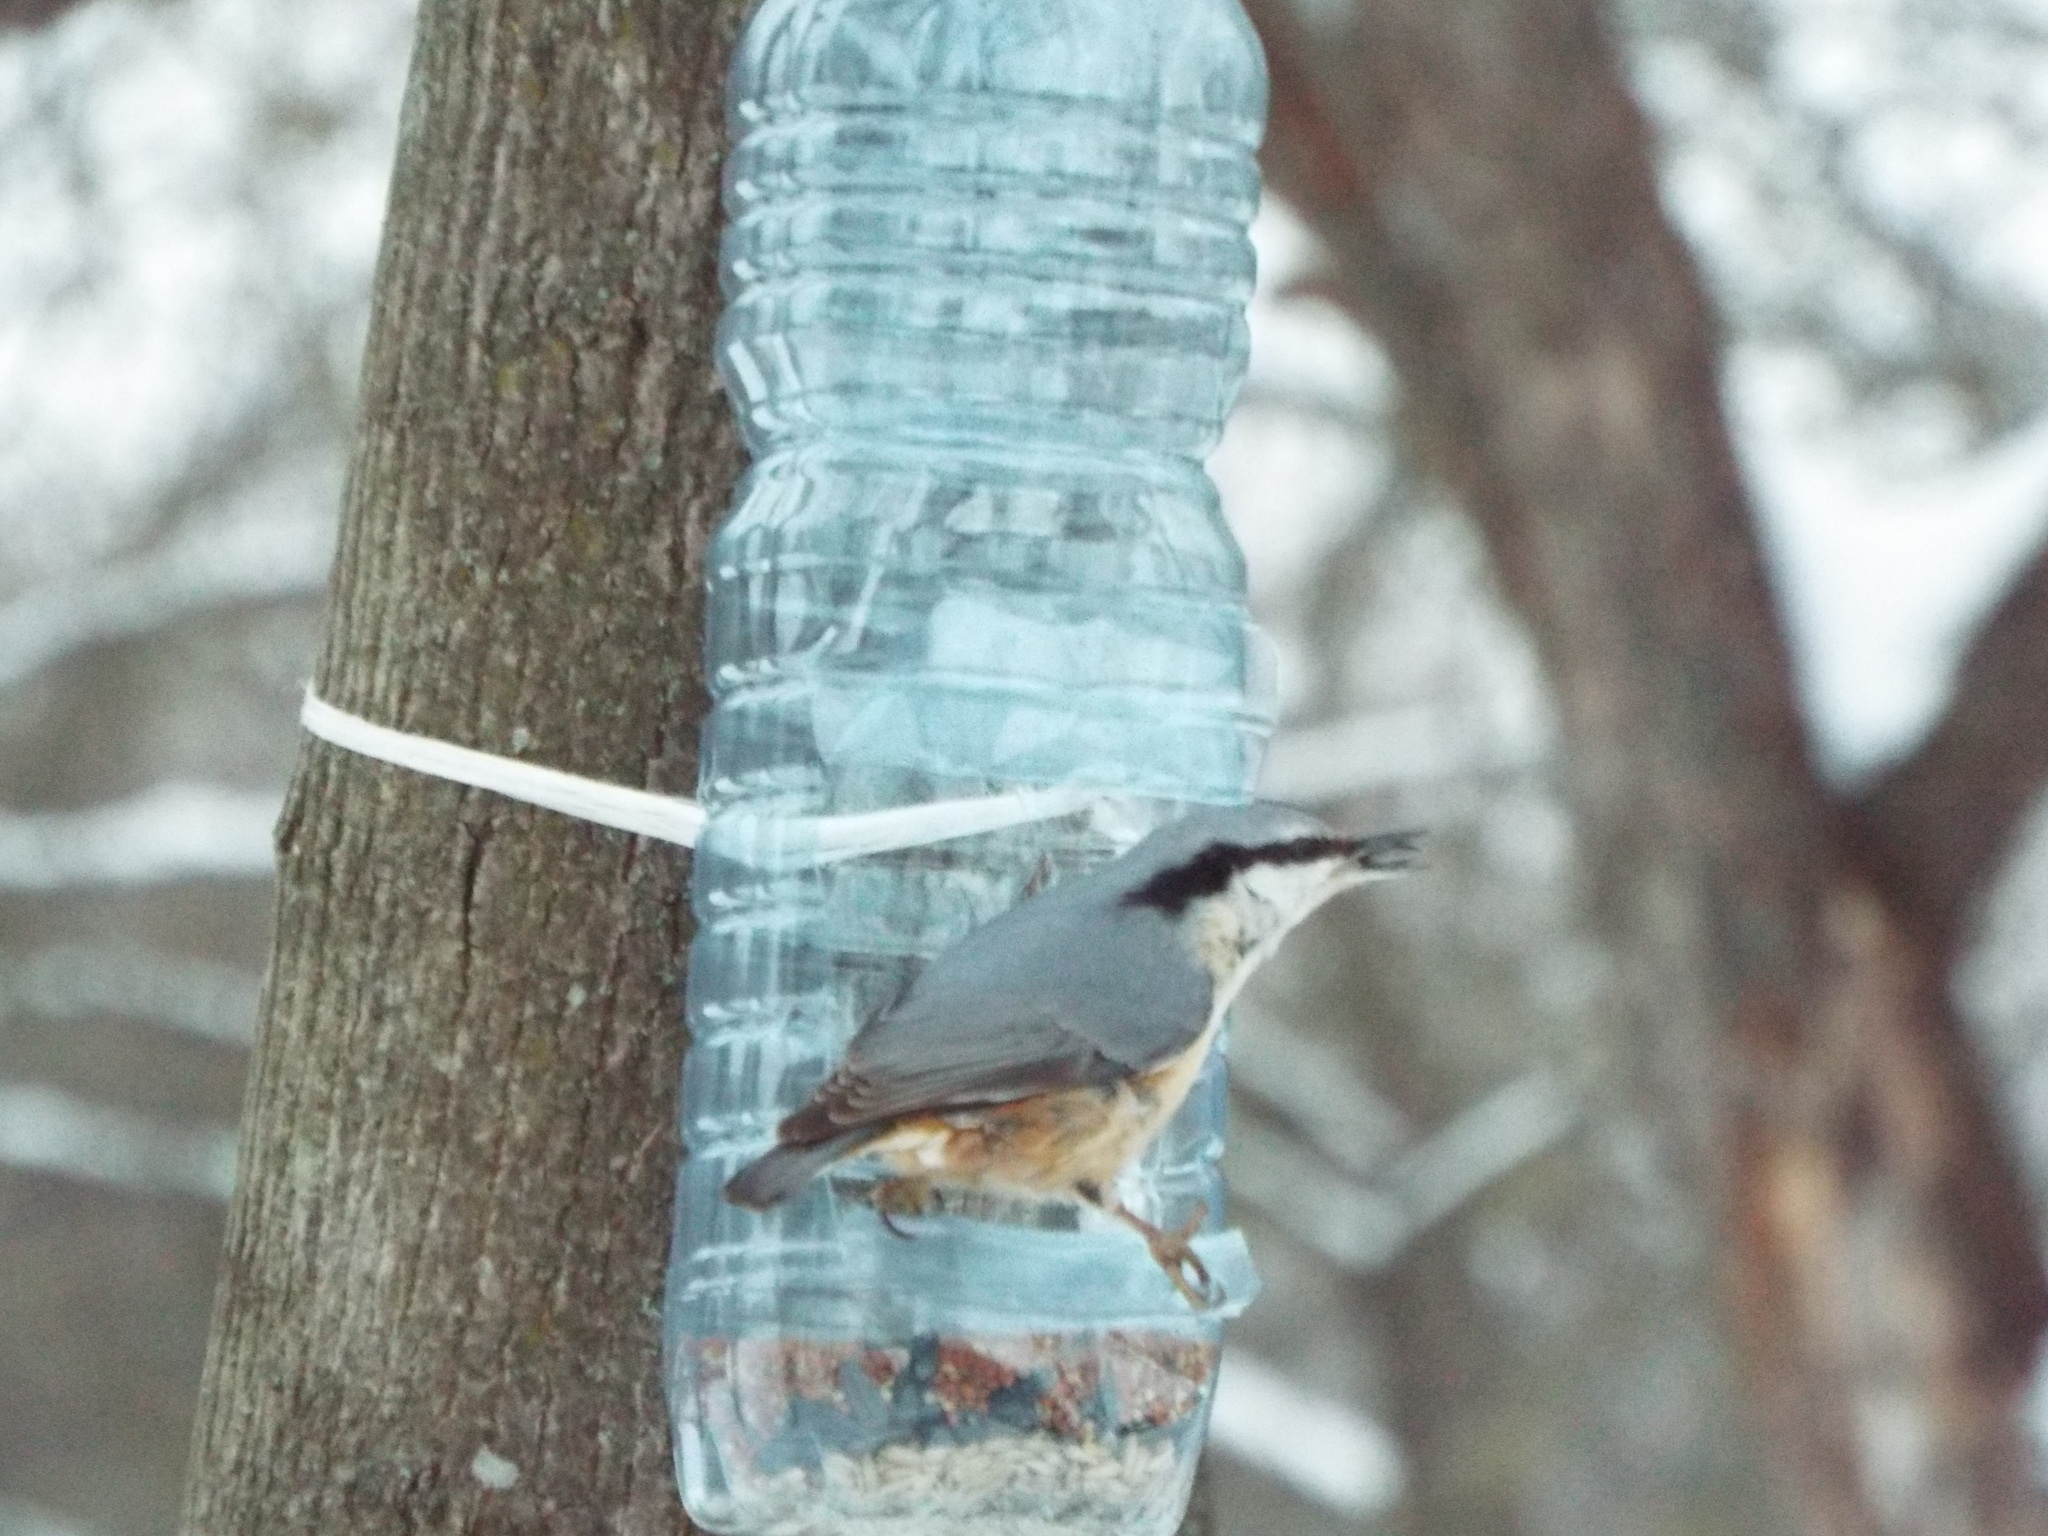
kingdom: Animalia
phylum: Chordata
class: Aves
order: Passeriformes
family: Sittidae
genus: Sitta
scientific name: Sitta europaea
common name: Eurasian nuthatch
